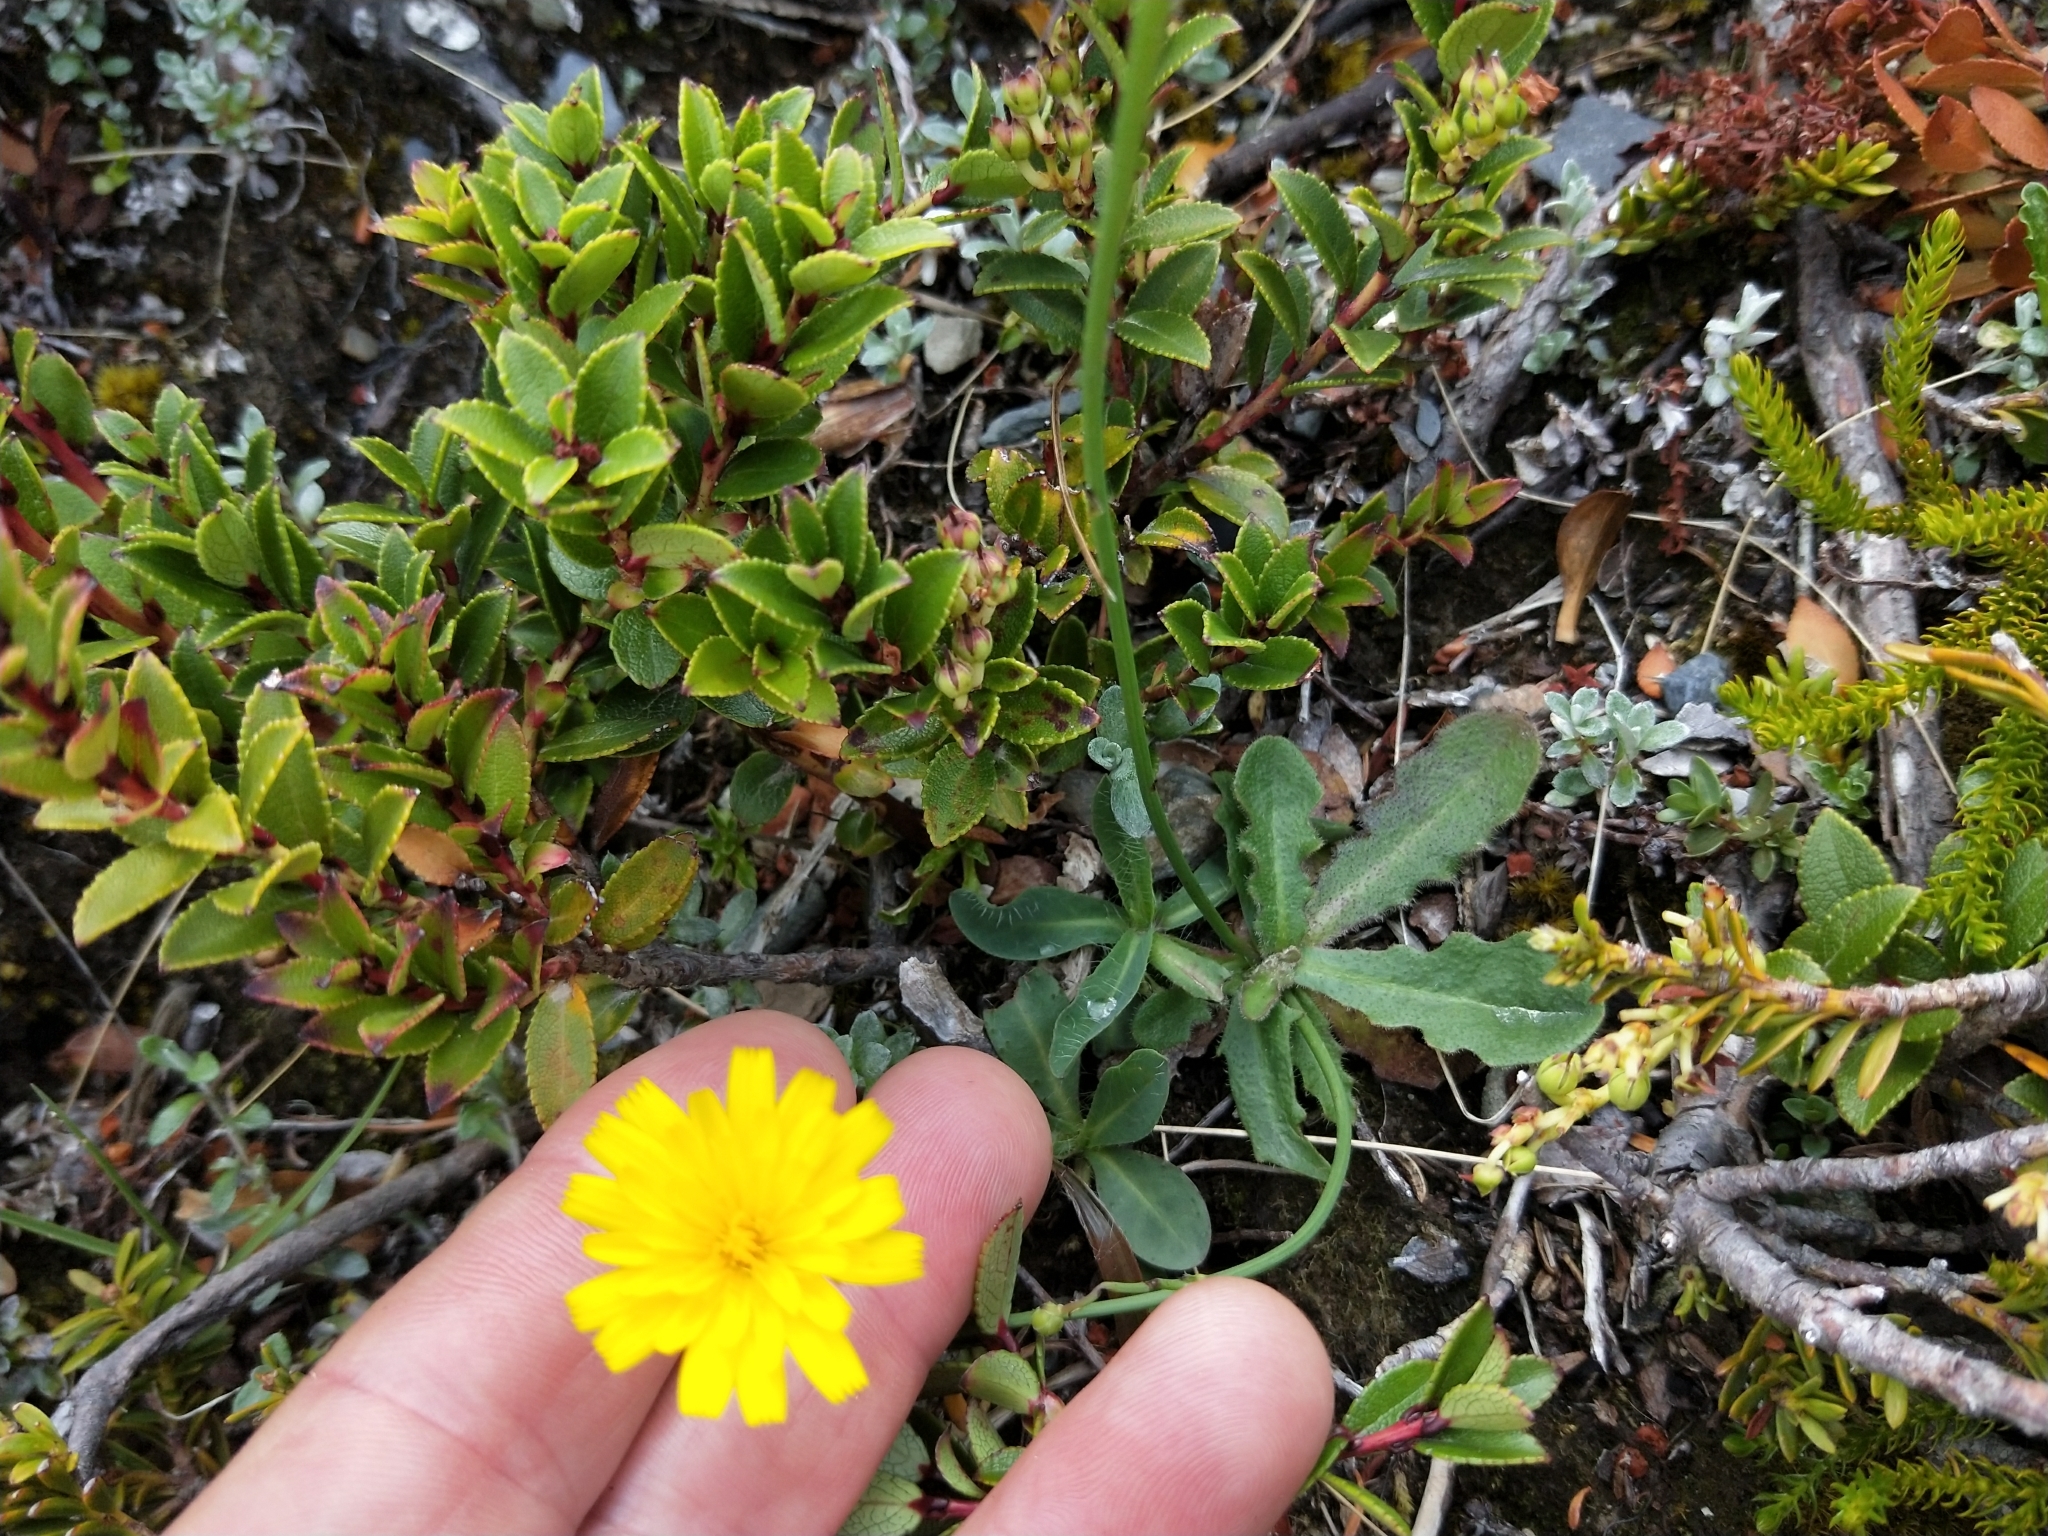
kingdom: Plantae
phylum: Tracheophyta
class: Magnoliopsida
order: Asterales
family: Asteraceae
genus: Hypochaeris
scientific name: Hypochaeris radicata
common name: Flatweed
